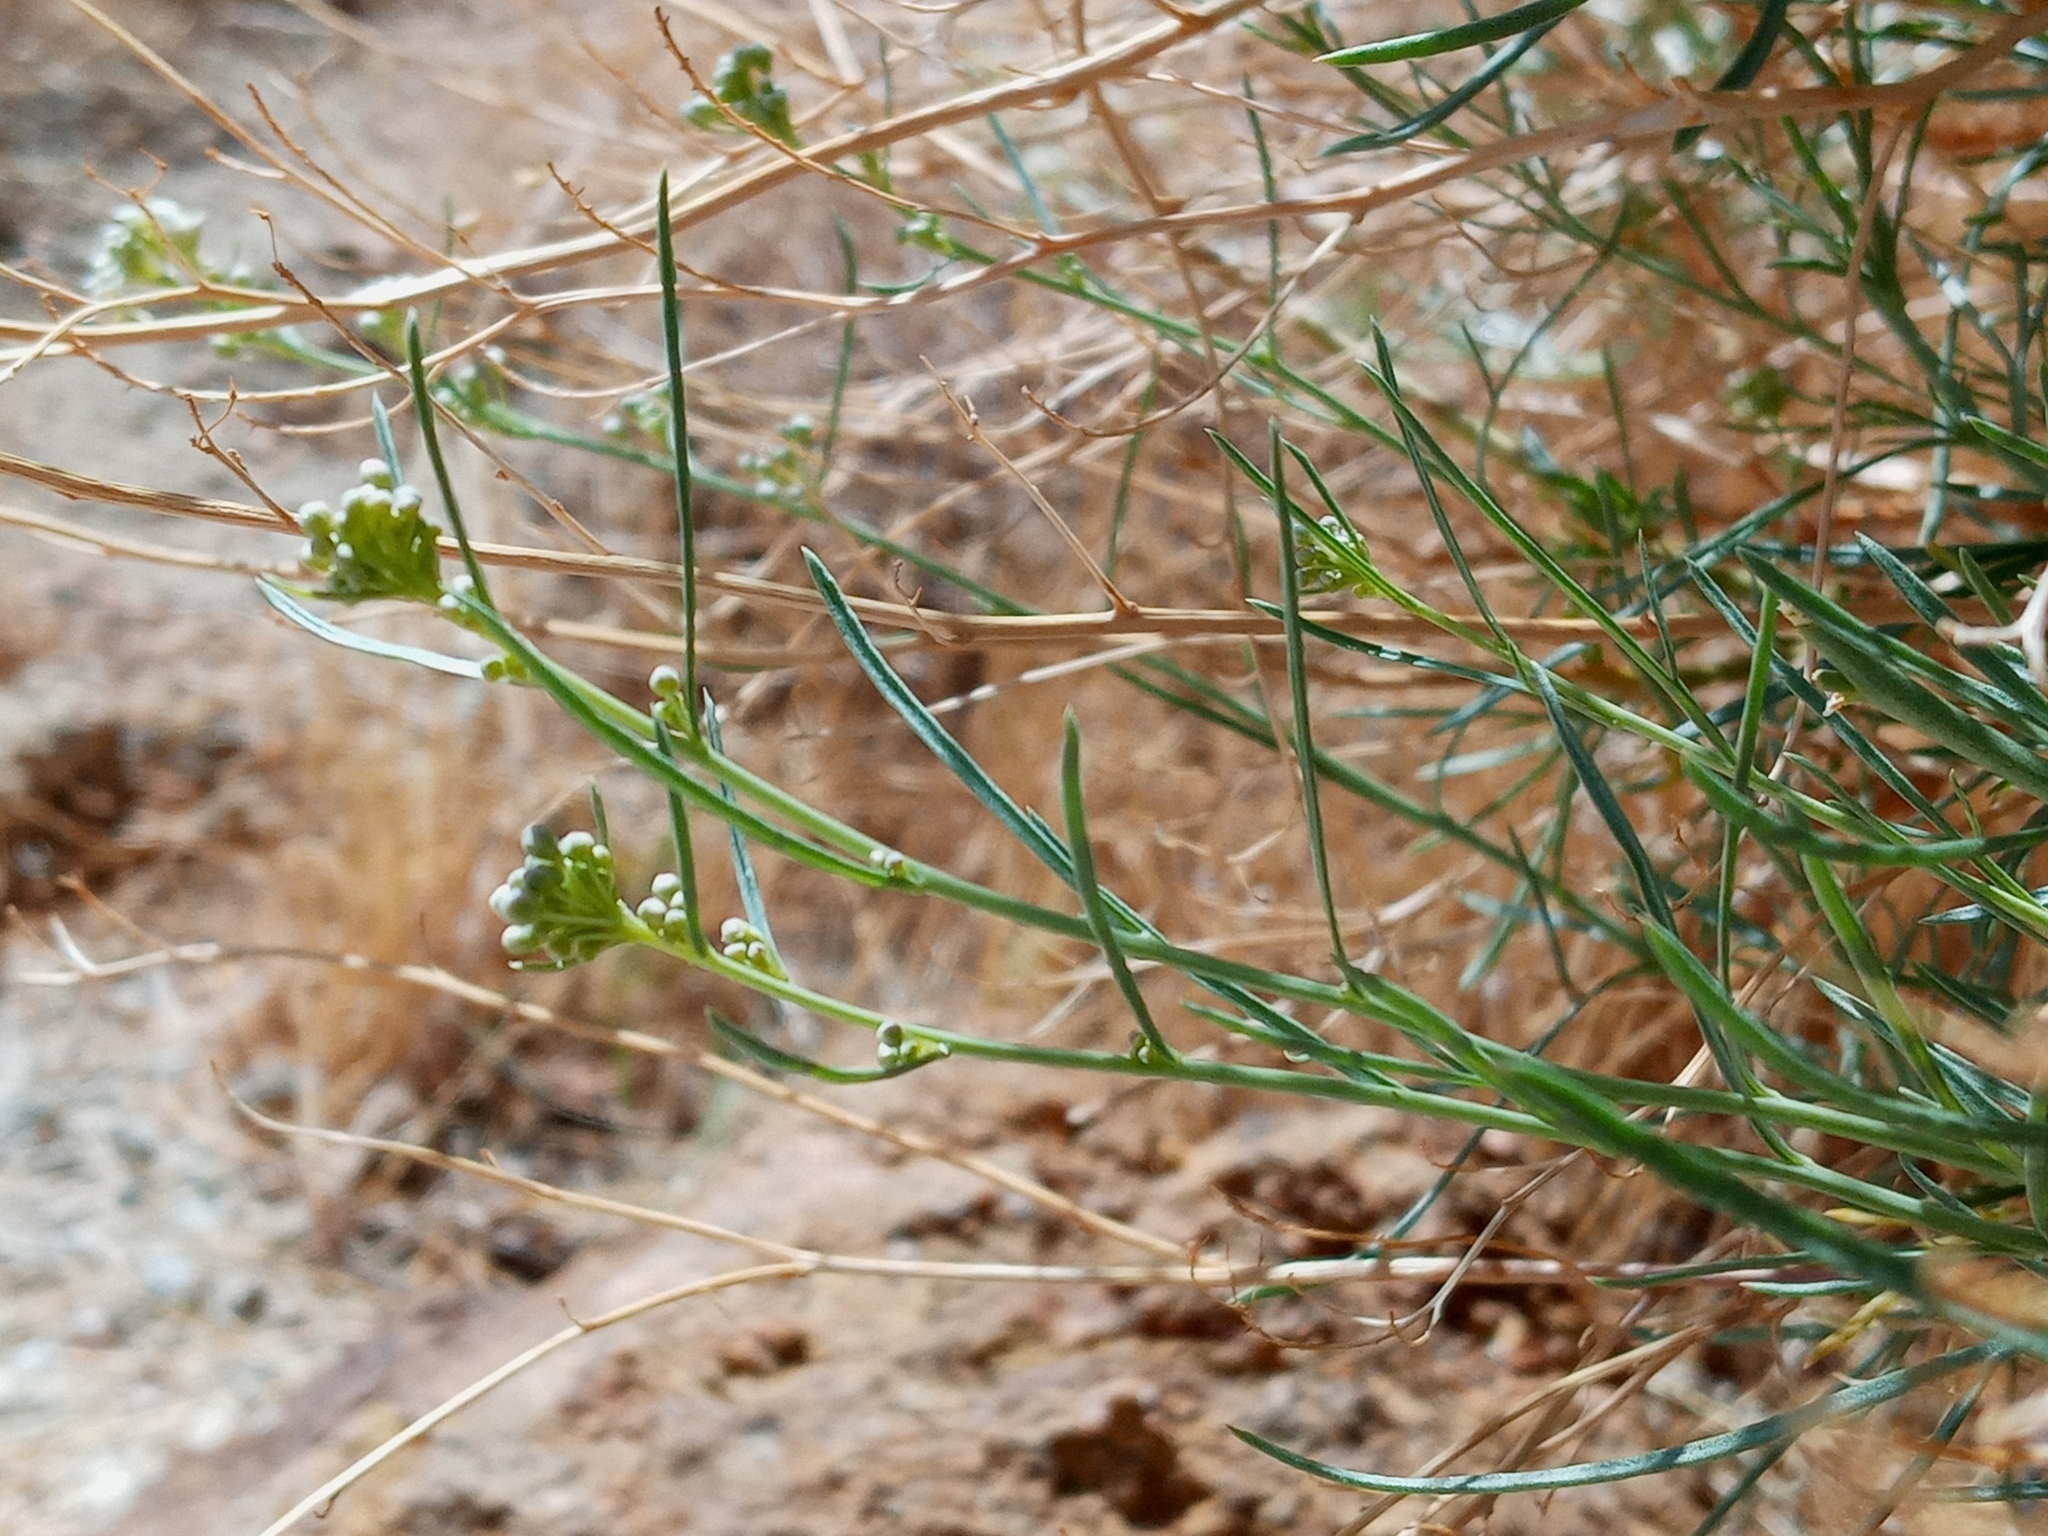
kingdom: Plantae
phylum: Tracheophyta
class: Magnoliopsida
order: Brassicales
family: Brassicaceae
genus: Lepidium
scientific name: Lepidium fremontii
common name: Fremont's pepperwort
